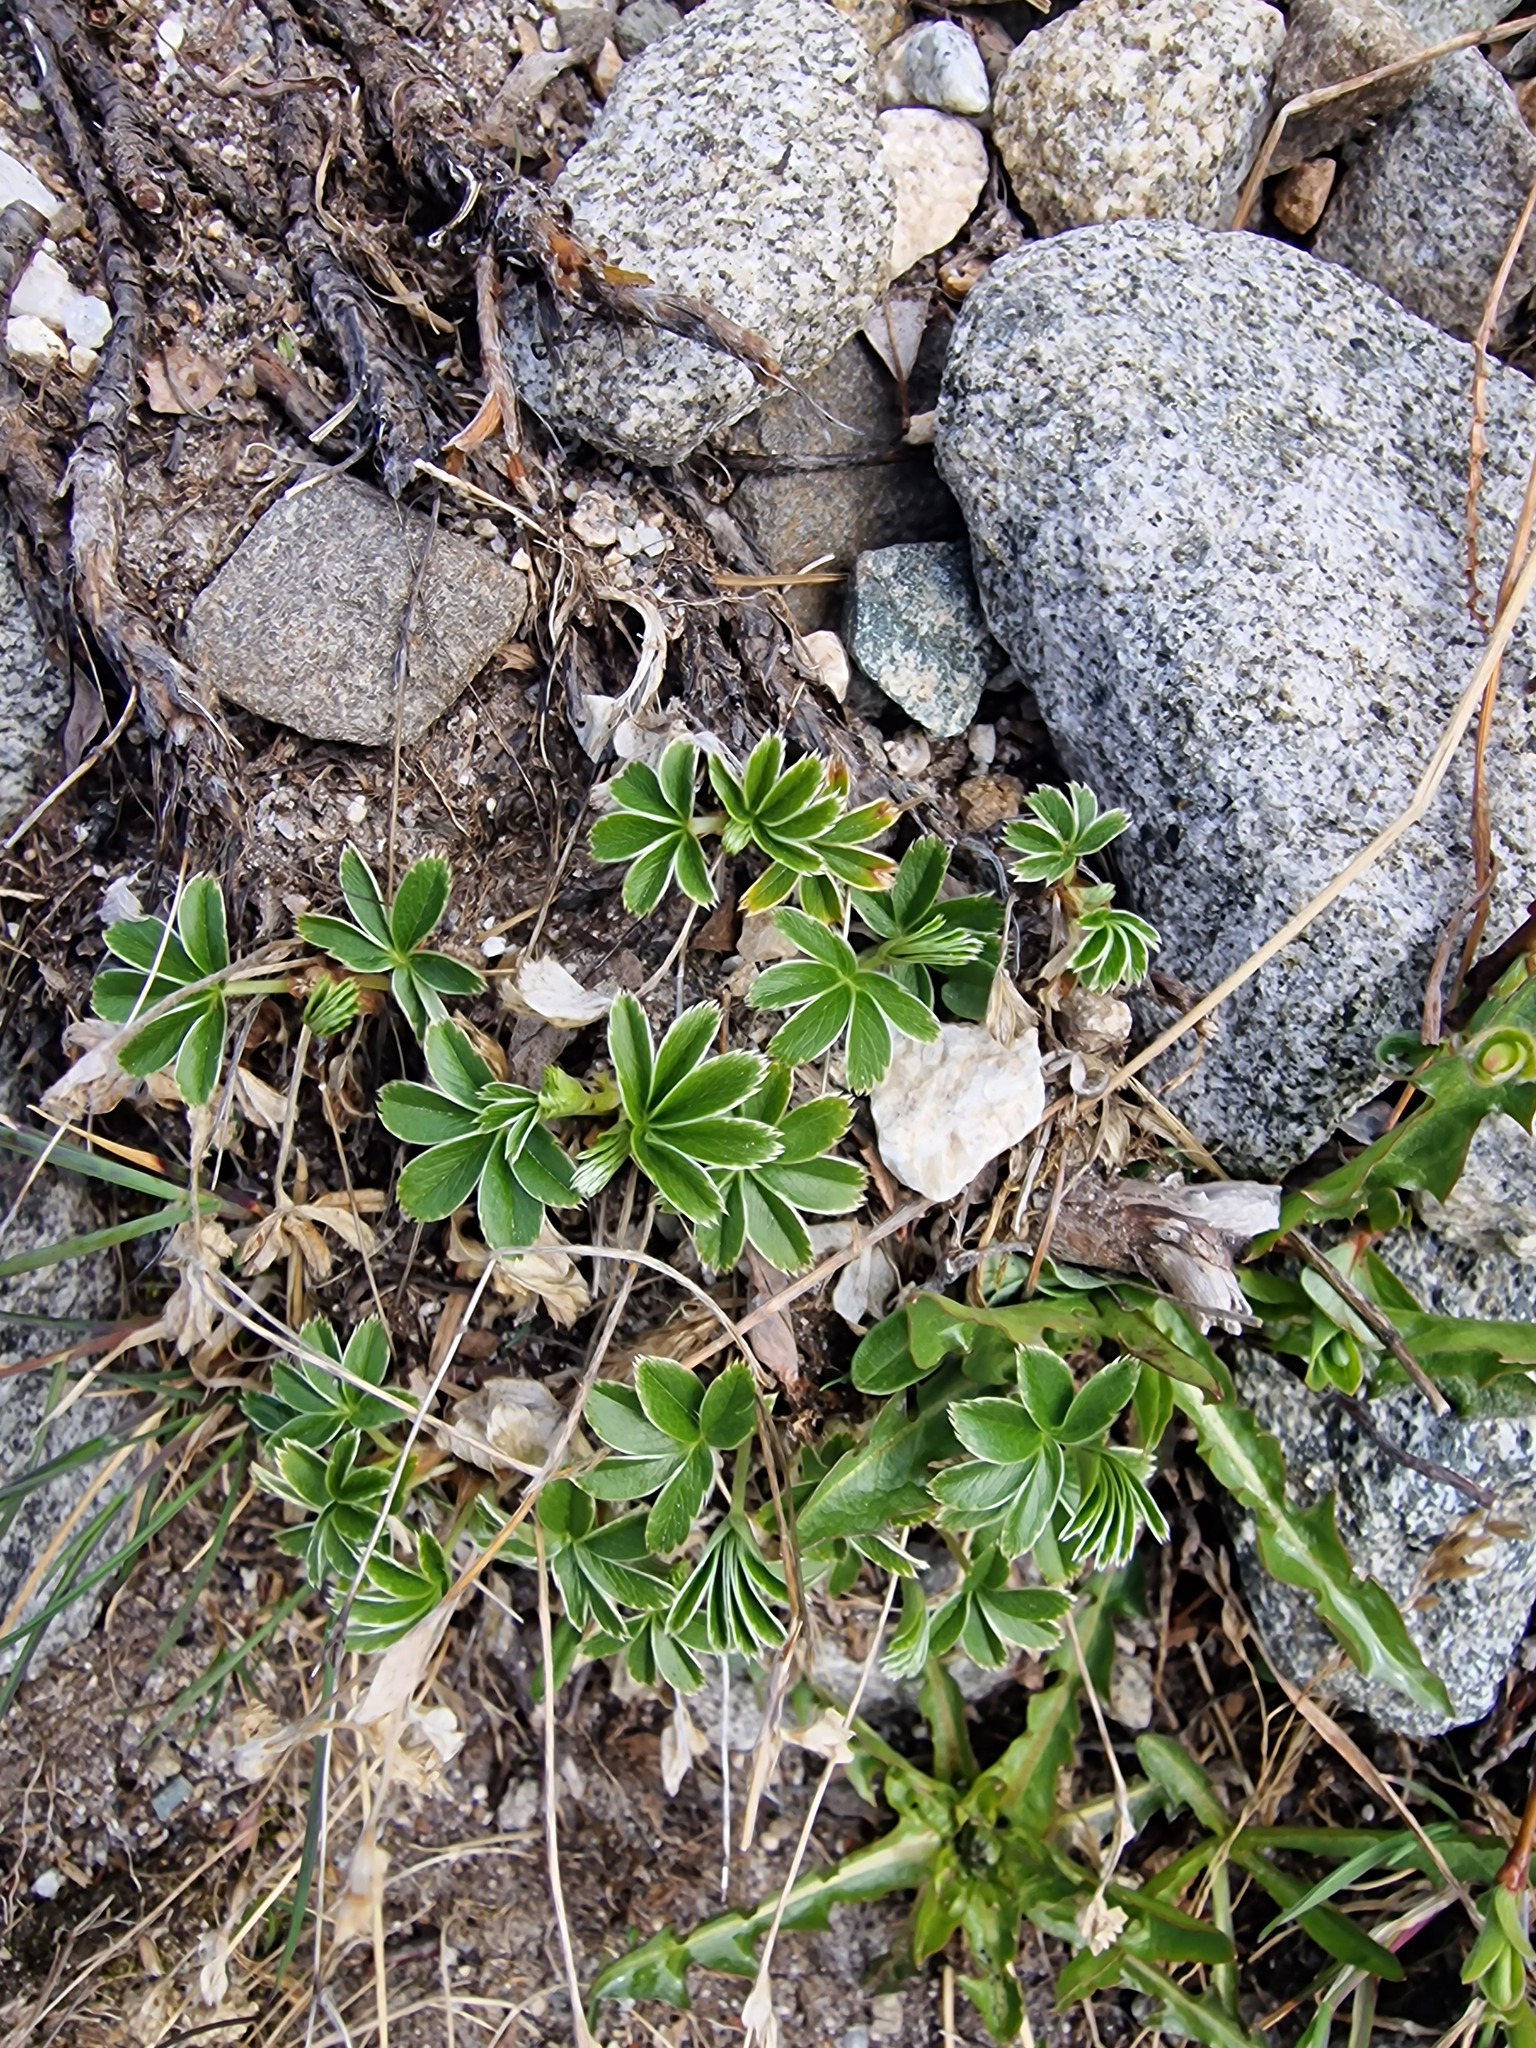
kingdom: Plantae
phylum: Tracheophyta
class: Magnoliopsida
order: Rosales
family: Rosaceae
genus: Alchemilla
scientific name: Alchemilla alpina
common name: Alpine lady's-mantle
